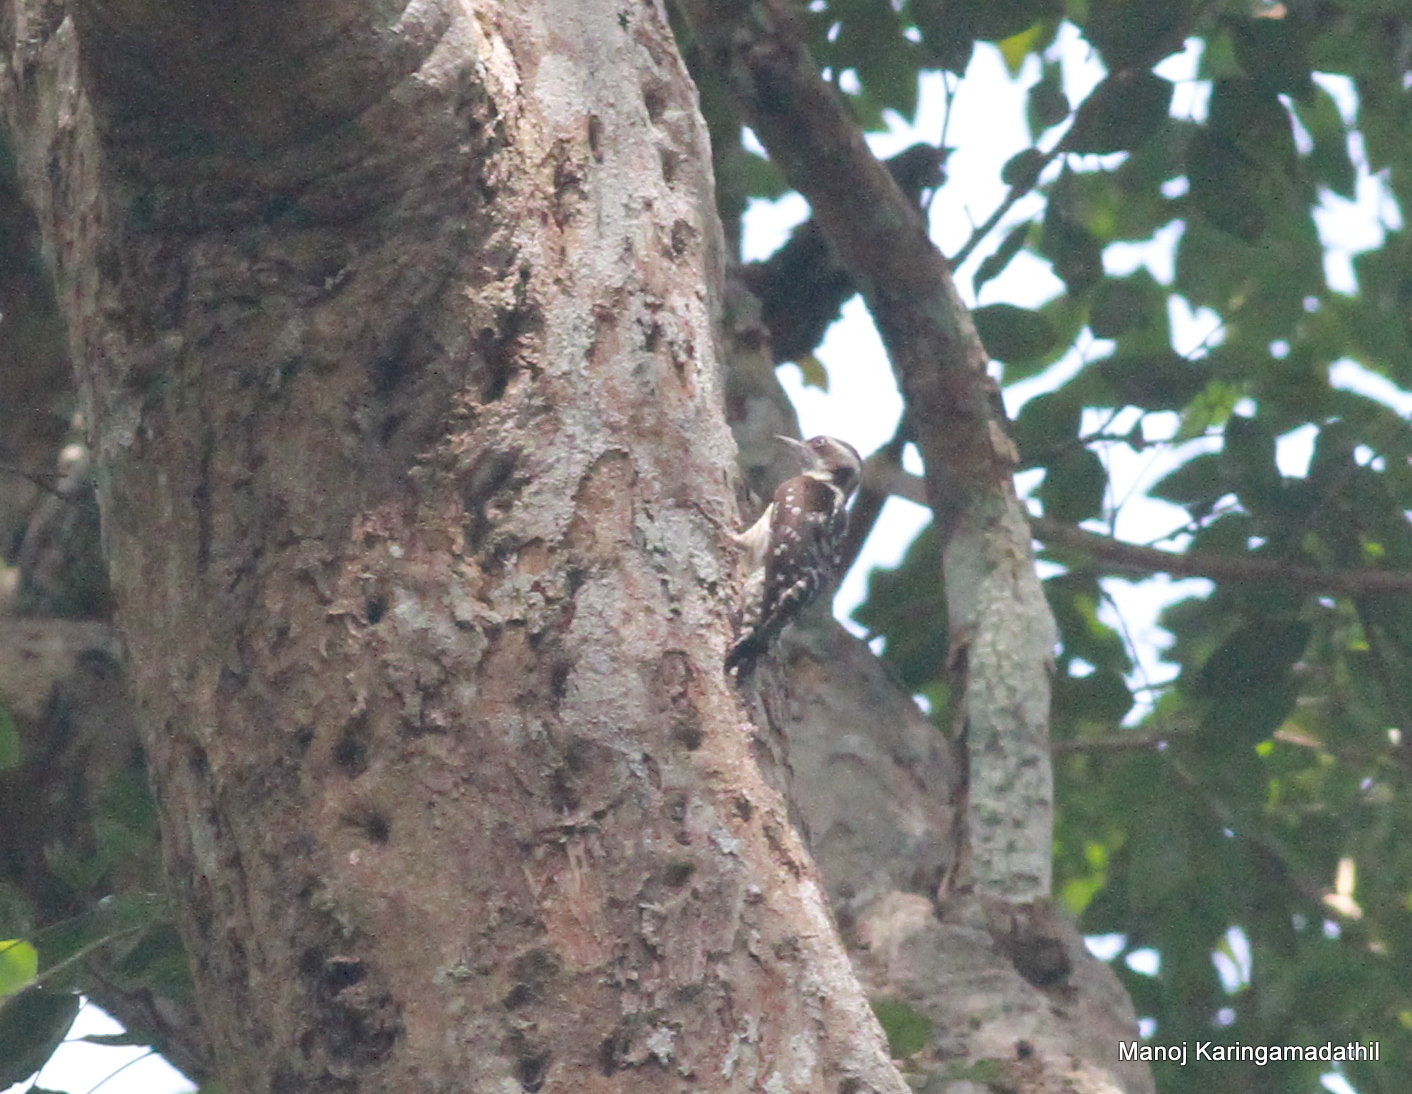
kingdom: Animalia
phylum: Chordata
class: Aves
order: Piciformes
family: Picidae
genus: Yungipicus
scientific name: Yungipicus nanus
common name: Brown-capped pygmy woodpecker
